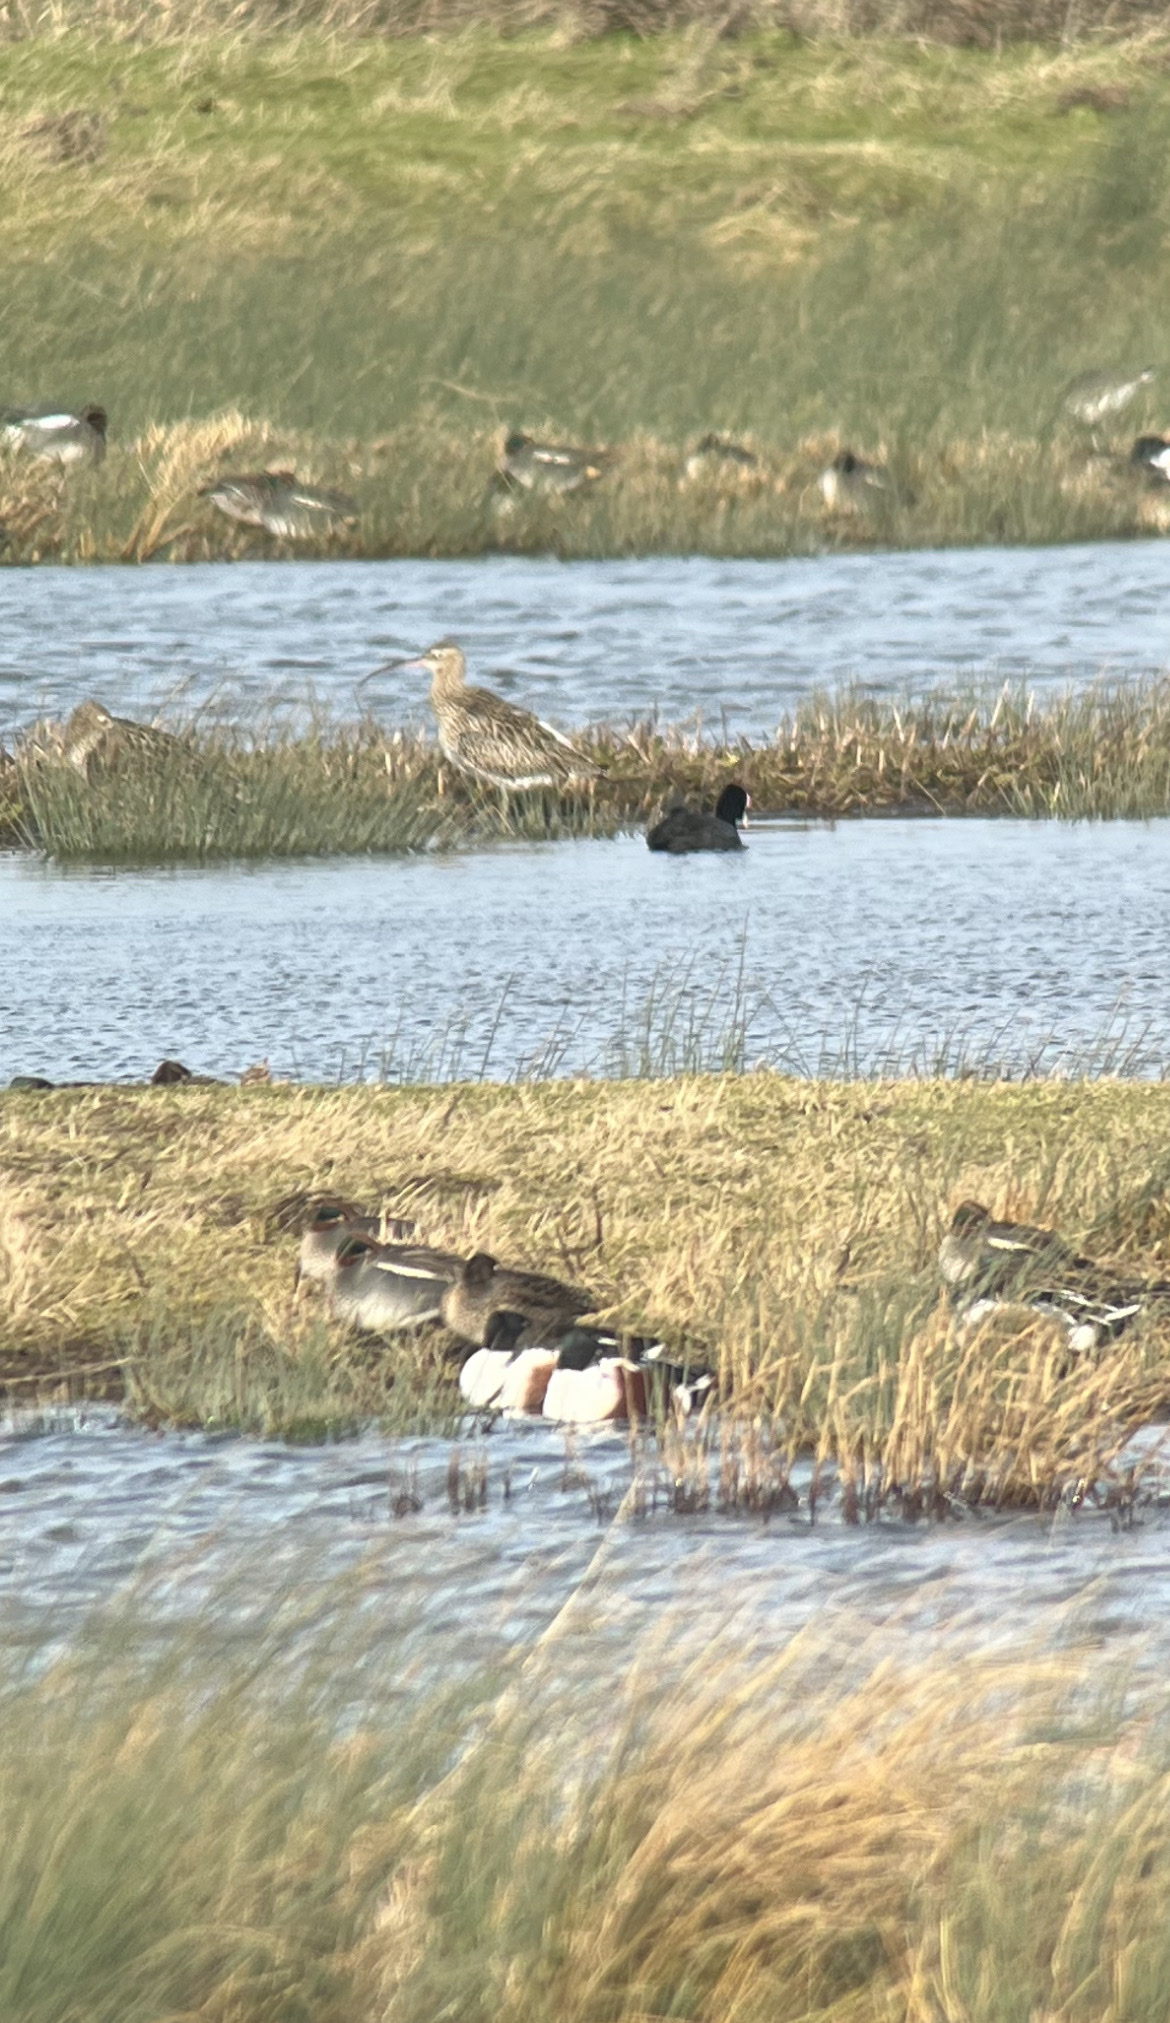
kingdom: Animalia
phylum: Chordata
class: Aves
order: Charadriiformes
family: Scolopacidae
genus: Numenius
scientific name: Numenius arquata
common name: Eurasian curlew
